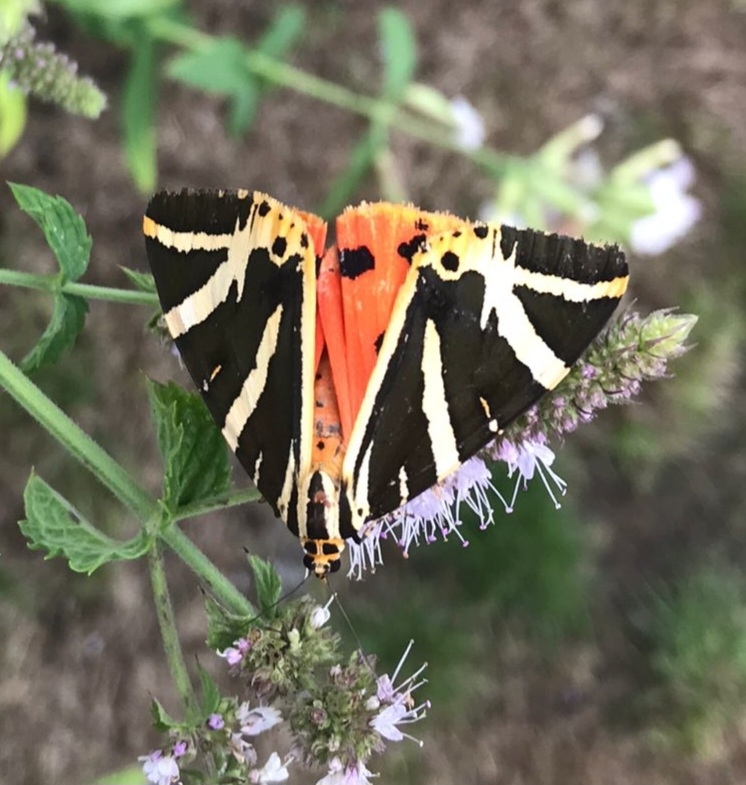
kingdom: Animalia
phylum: Arthropoda
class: Insecta
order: Lepidoptera
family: Erebidae
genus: Euplagia
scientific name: Euplagia quadripunctaria
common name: Jersey tiger
